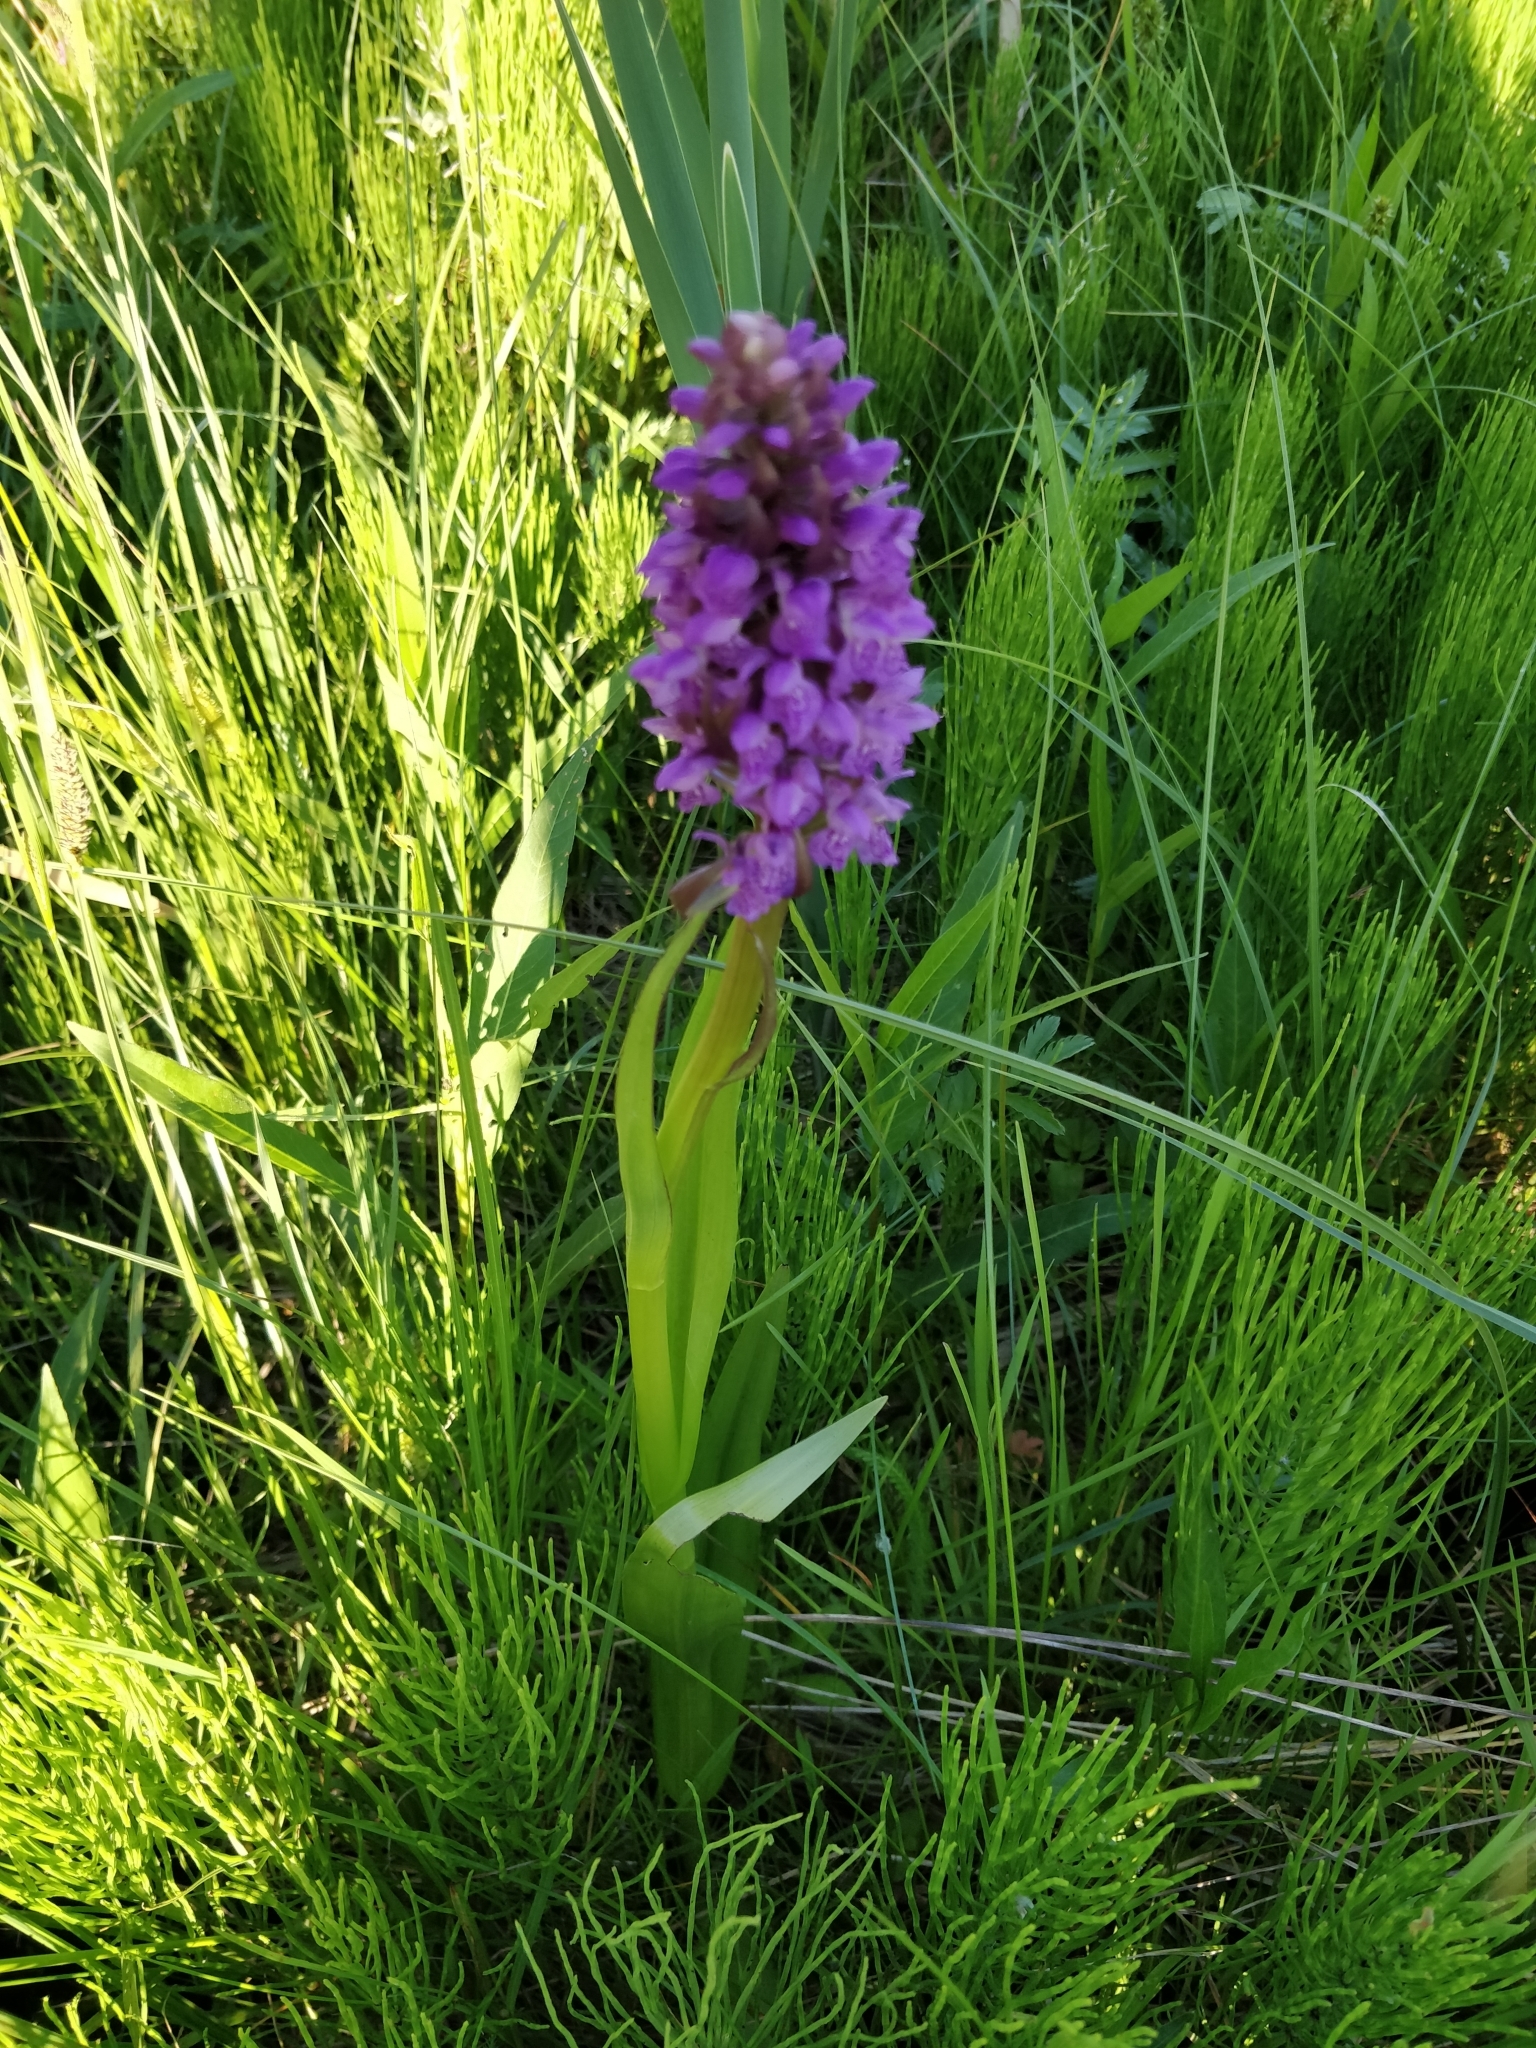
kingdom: Plantae
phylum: Tracheophyta
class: Liliopsida
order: Asparagales
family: Orchidaceae
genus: Dactylorhiza
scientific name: Dactylorhiza incarnata
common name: Early marsh-orchid
